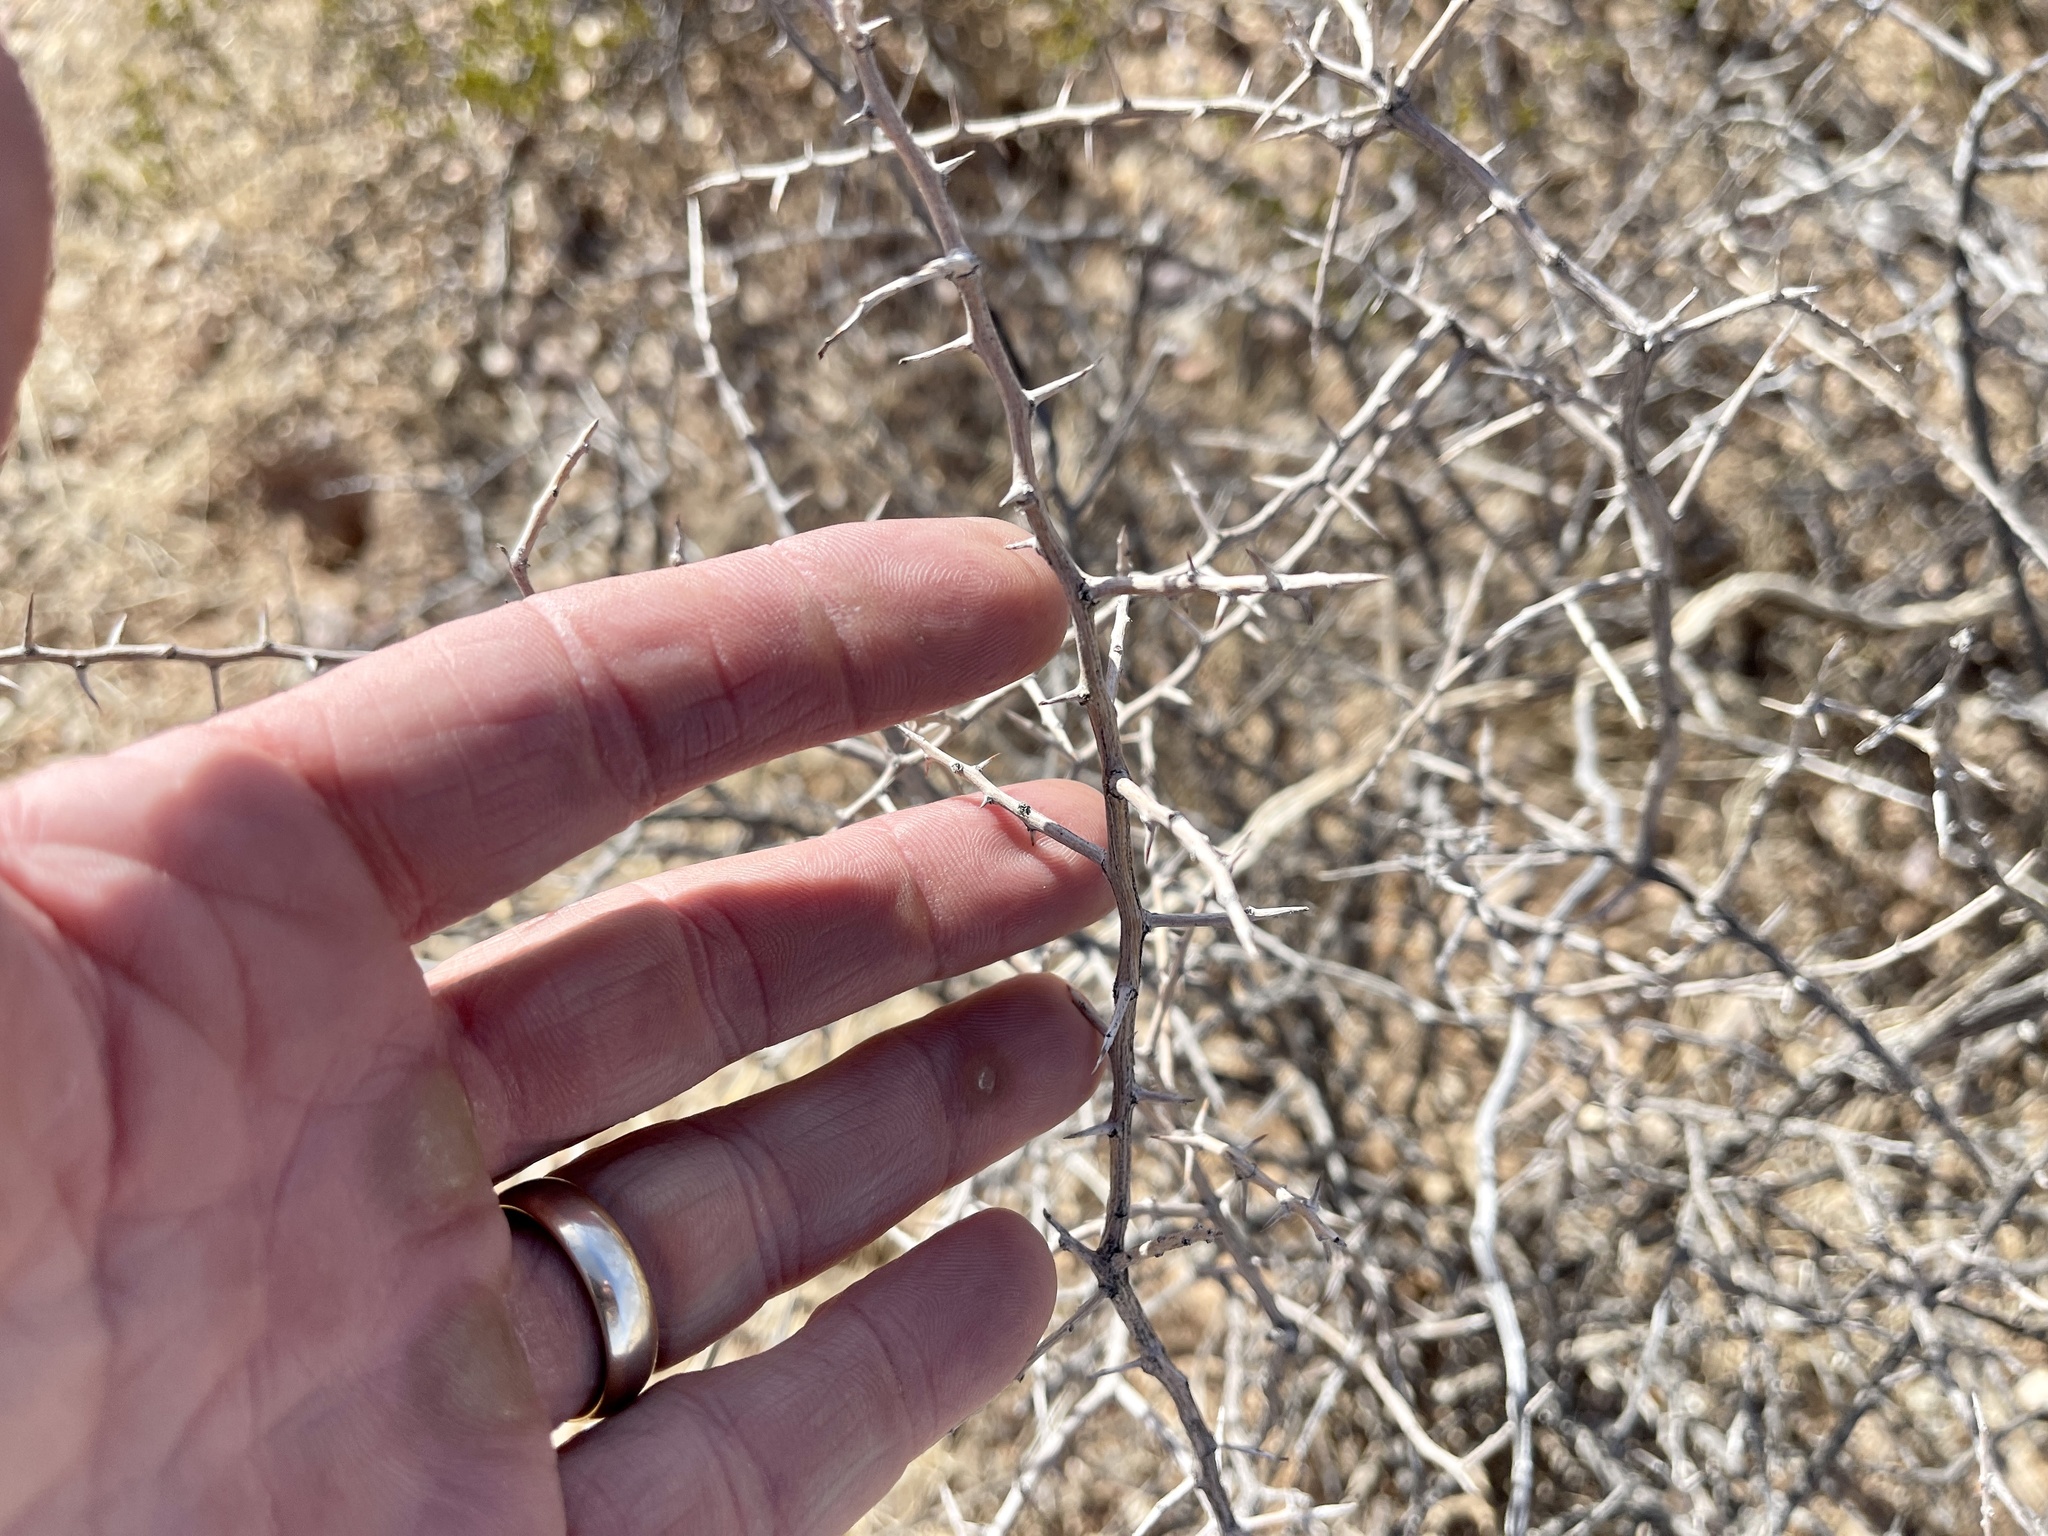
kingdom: Plantae
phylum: Tracheophyta
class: Magnoliopsida
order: Solanales
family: Solanaceae
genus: Lycium
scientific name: Lycium
